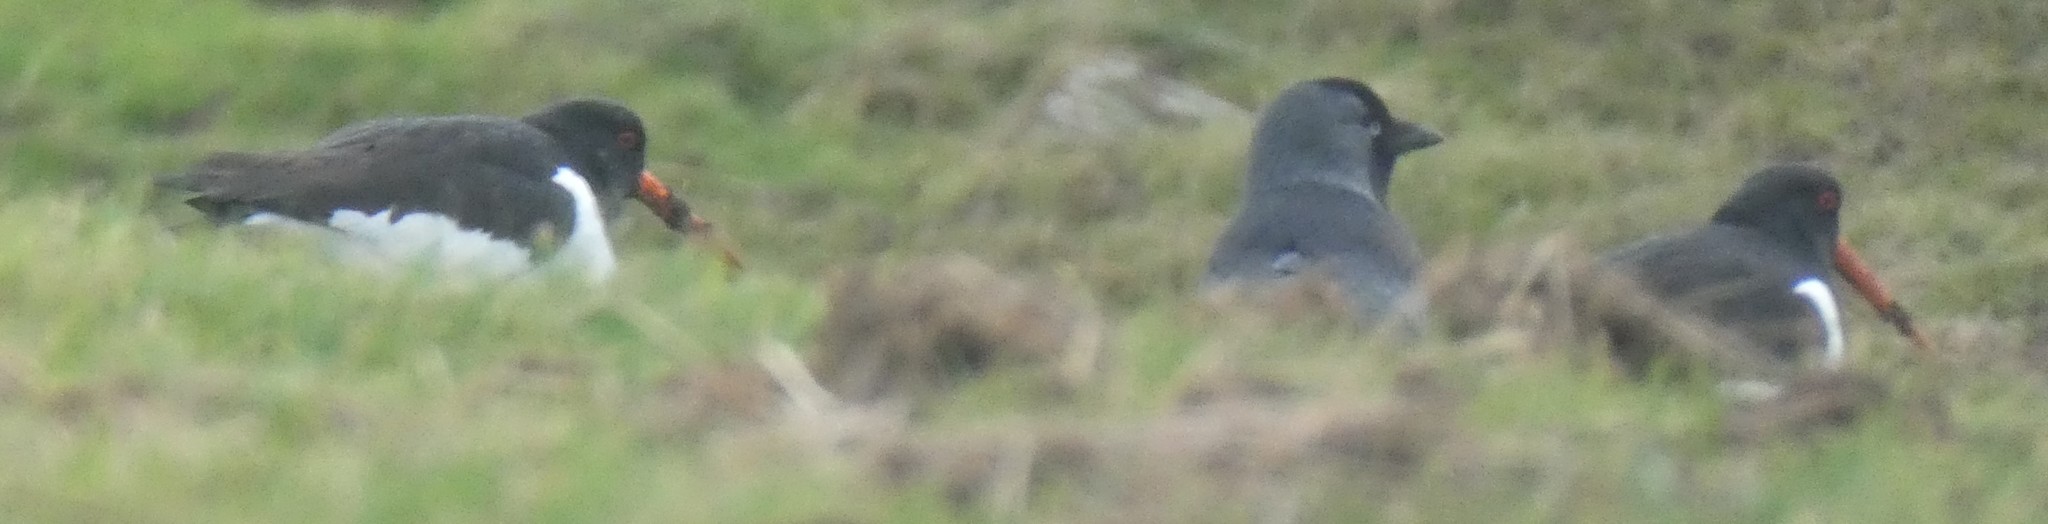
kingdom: Animalia
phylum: Chordata
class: Aves
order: Charadriiformes
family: Haematopodidae
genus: Haematopus
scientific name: Haematopus ostralegus
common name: Eurasian oystercatcher
